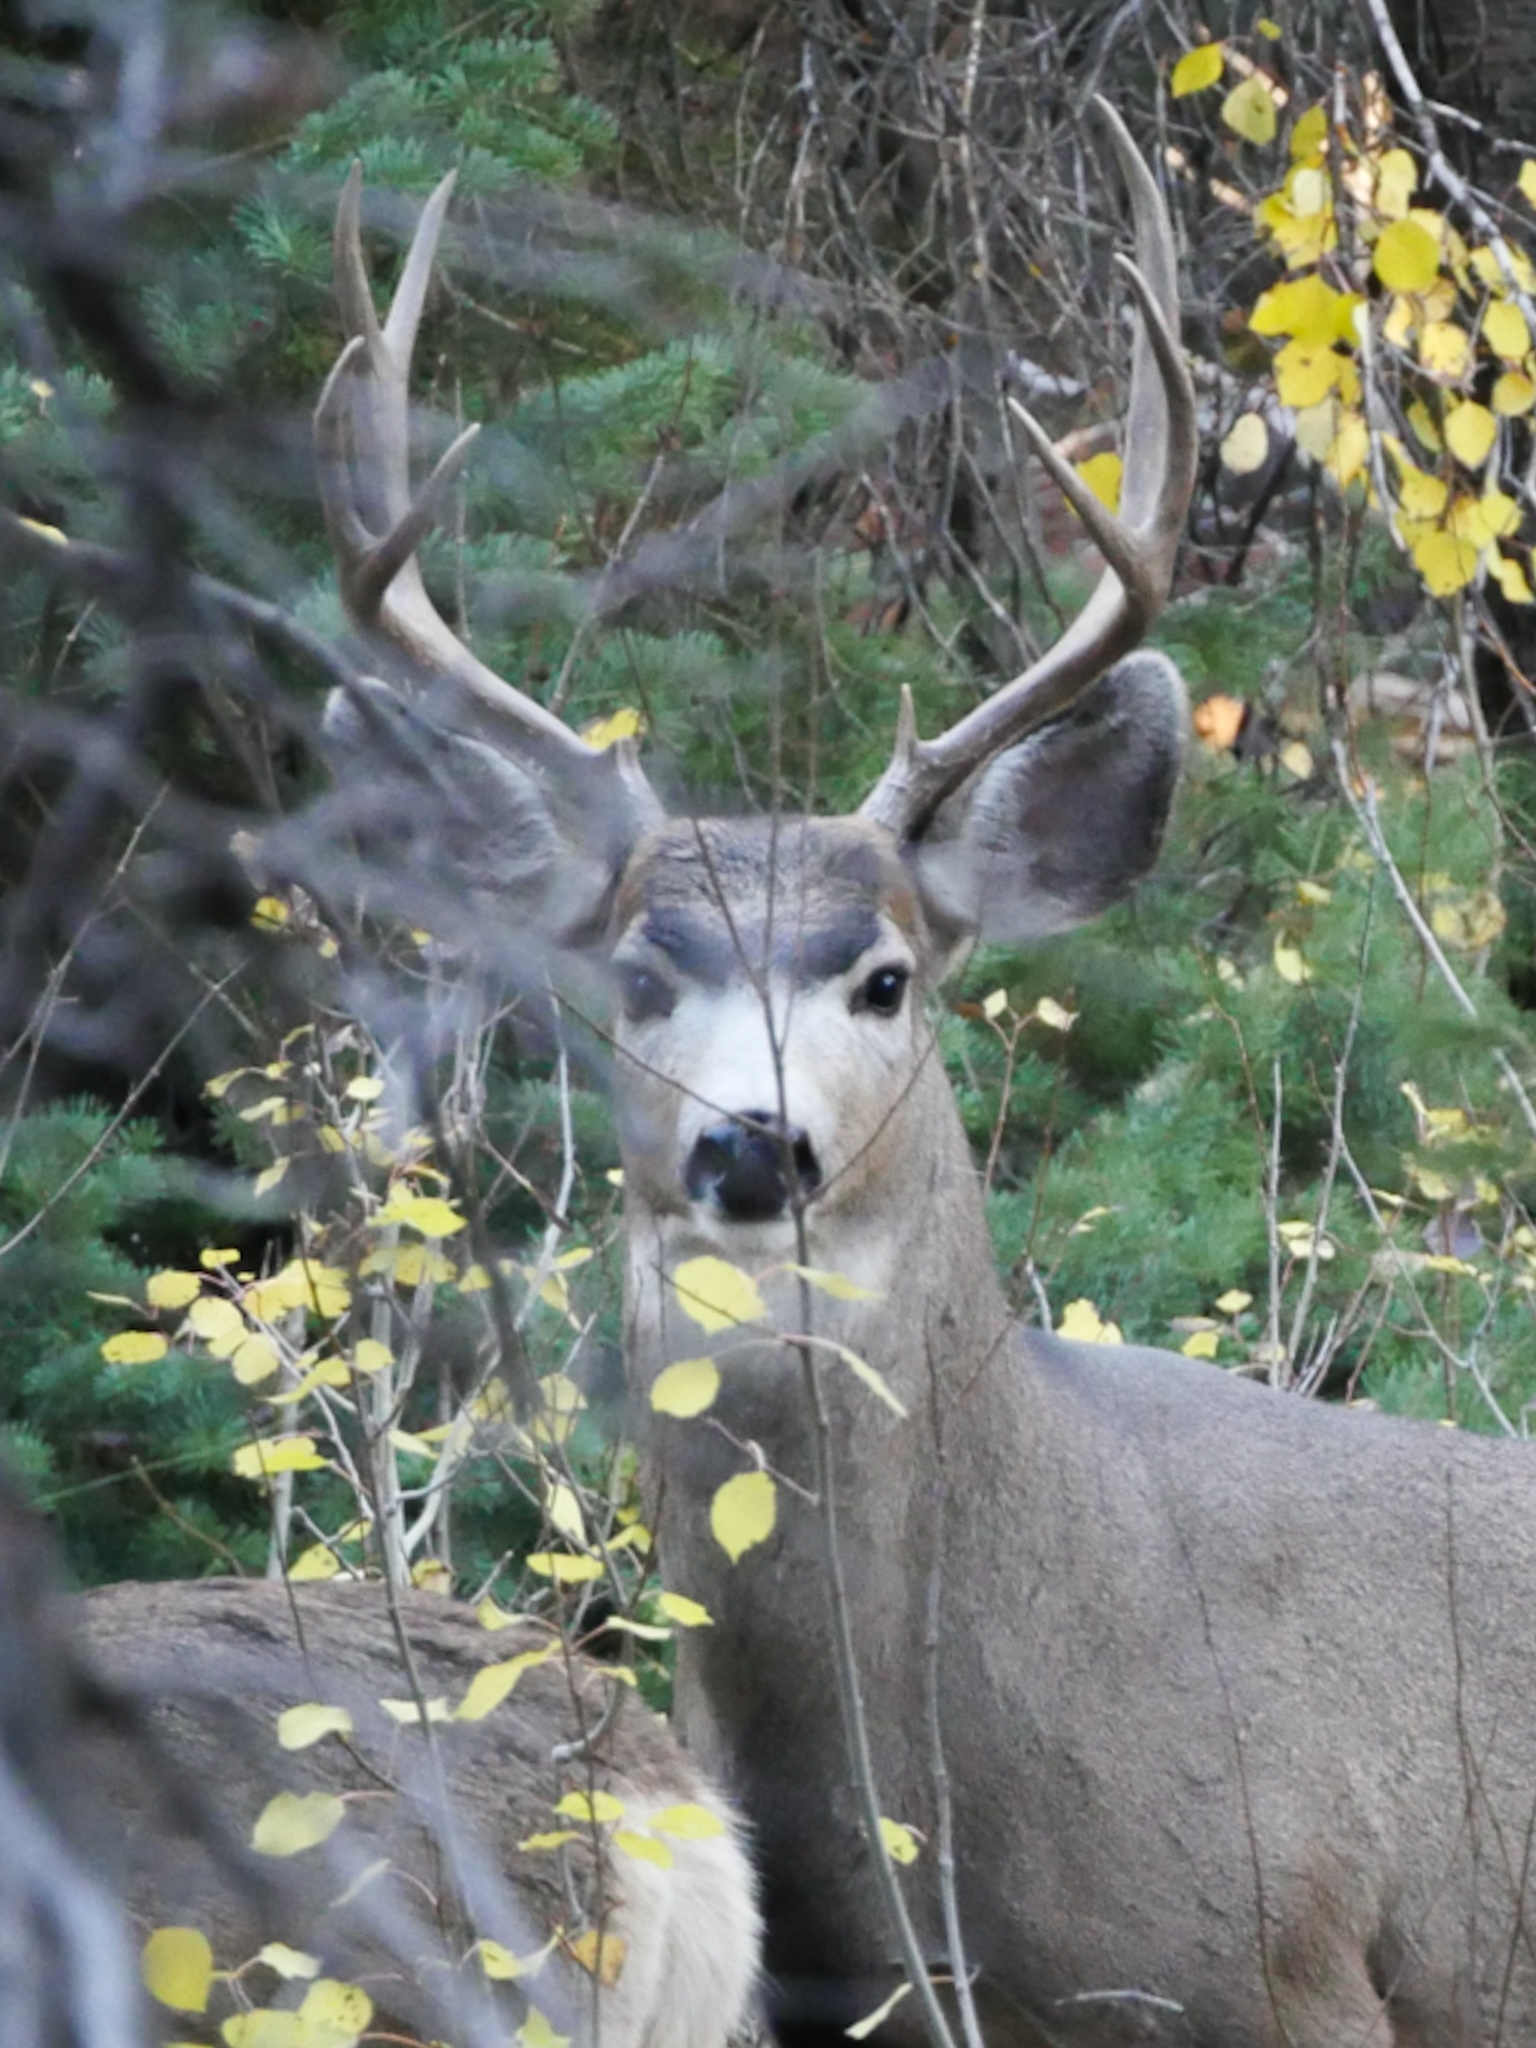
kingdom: Animalia
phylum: Chordata
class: Mammalia
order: Artiodactyla
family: Cervidae
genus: Odocoileus
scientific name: Odocoileus hemionus
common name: Mule deer
